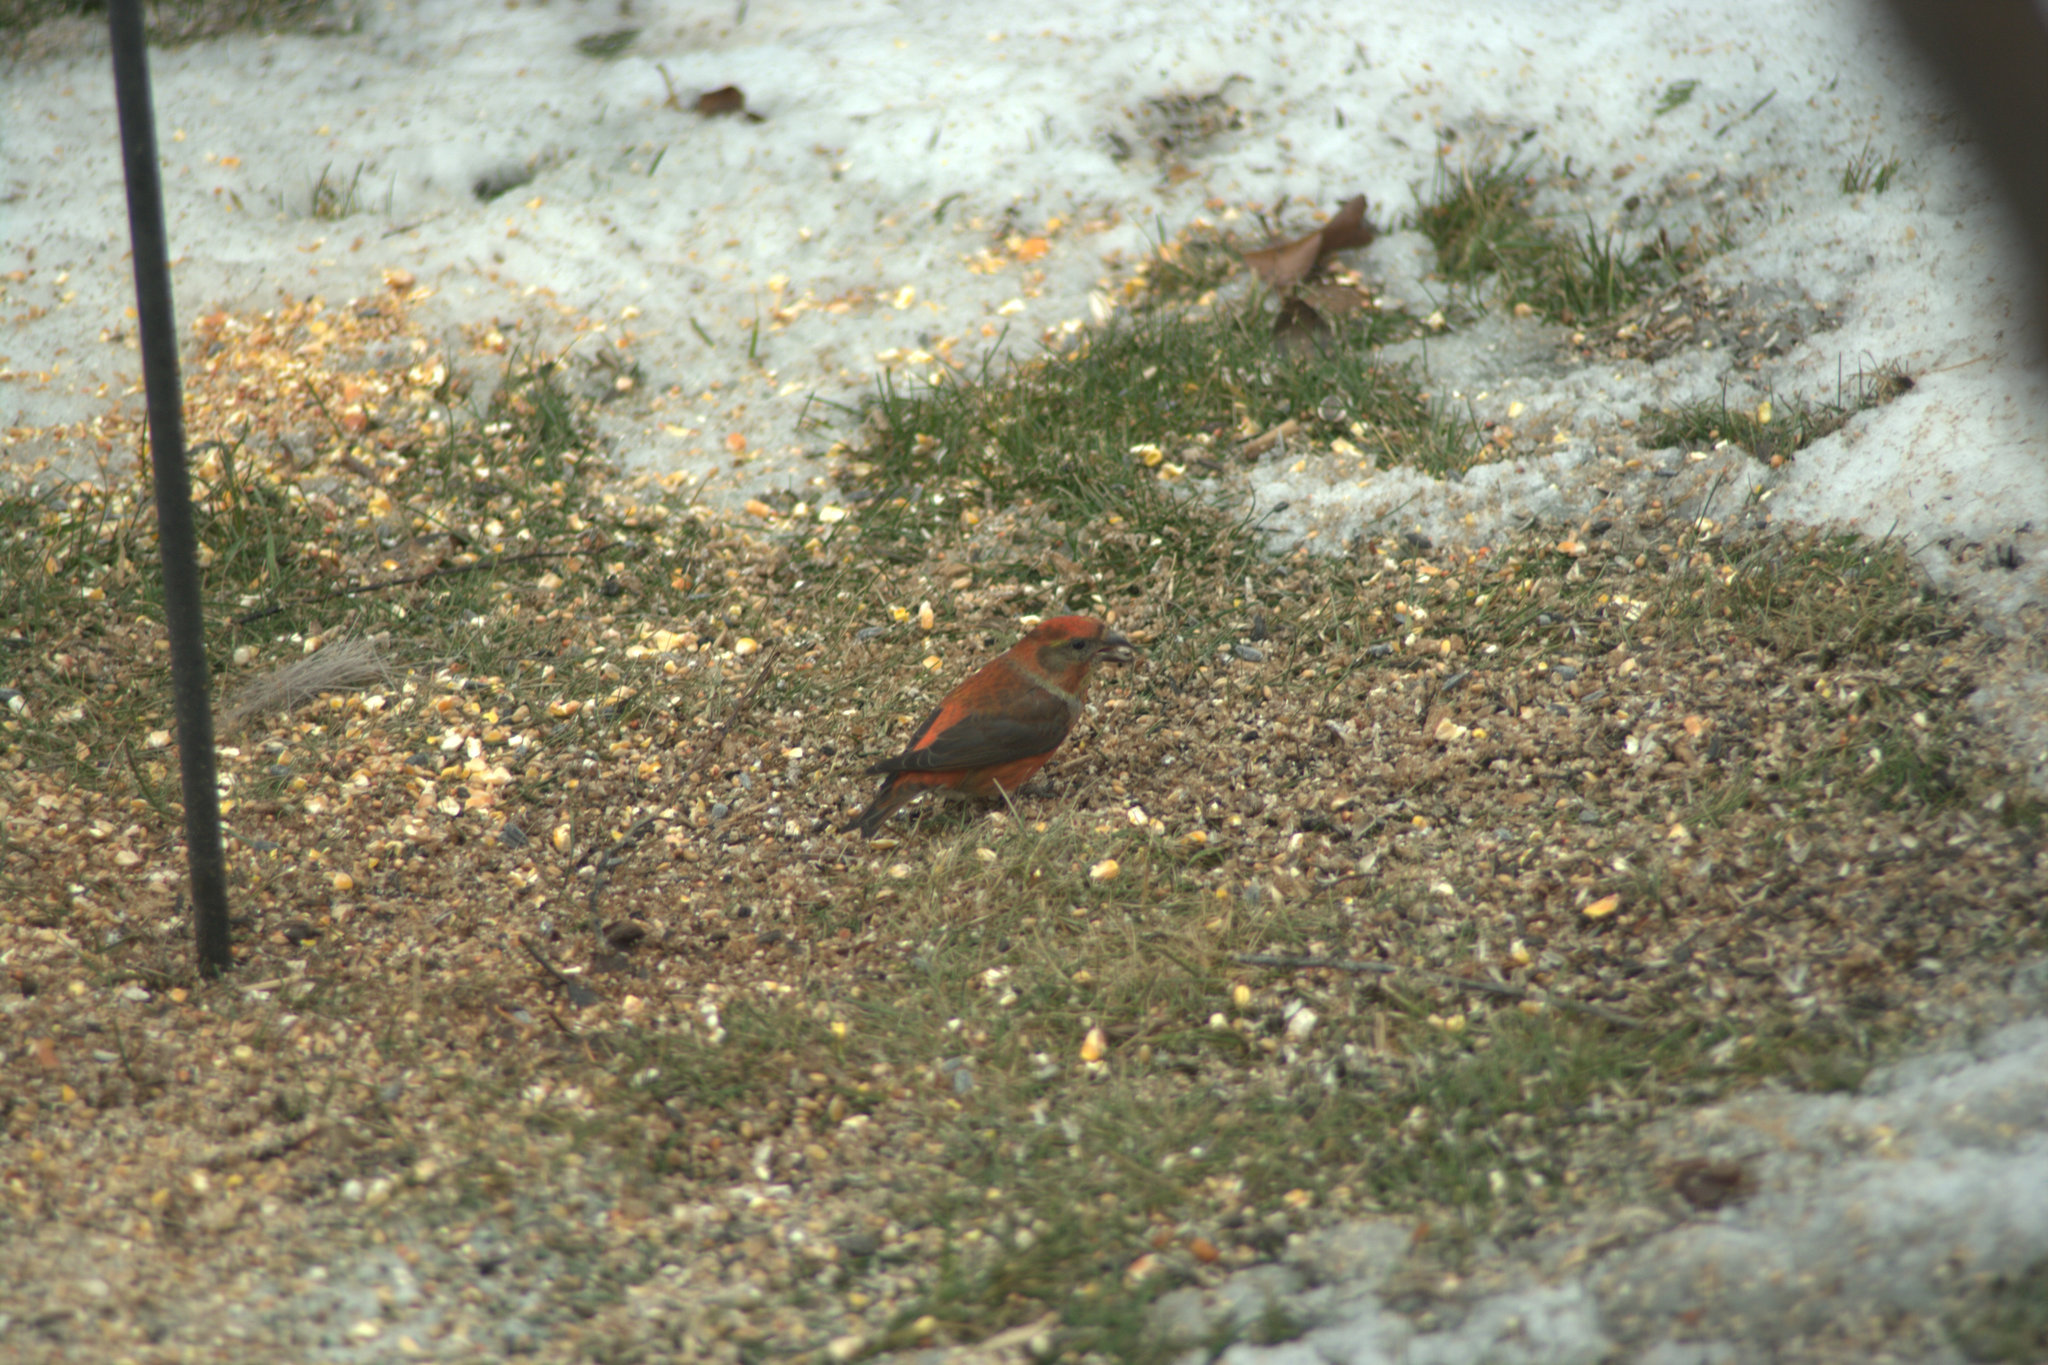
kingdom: Animalia
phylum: Chordata
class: Aves
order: Passeriformes
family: Fringillidae
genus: Loxia
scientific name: Loxia curvirostra
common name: Red crossbill
